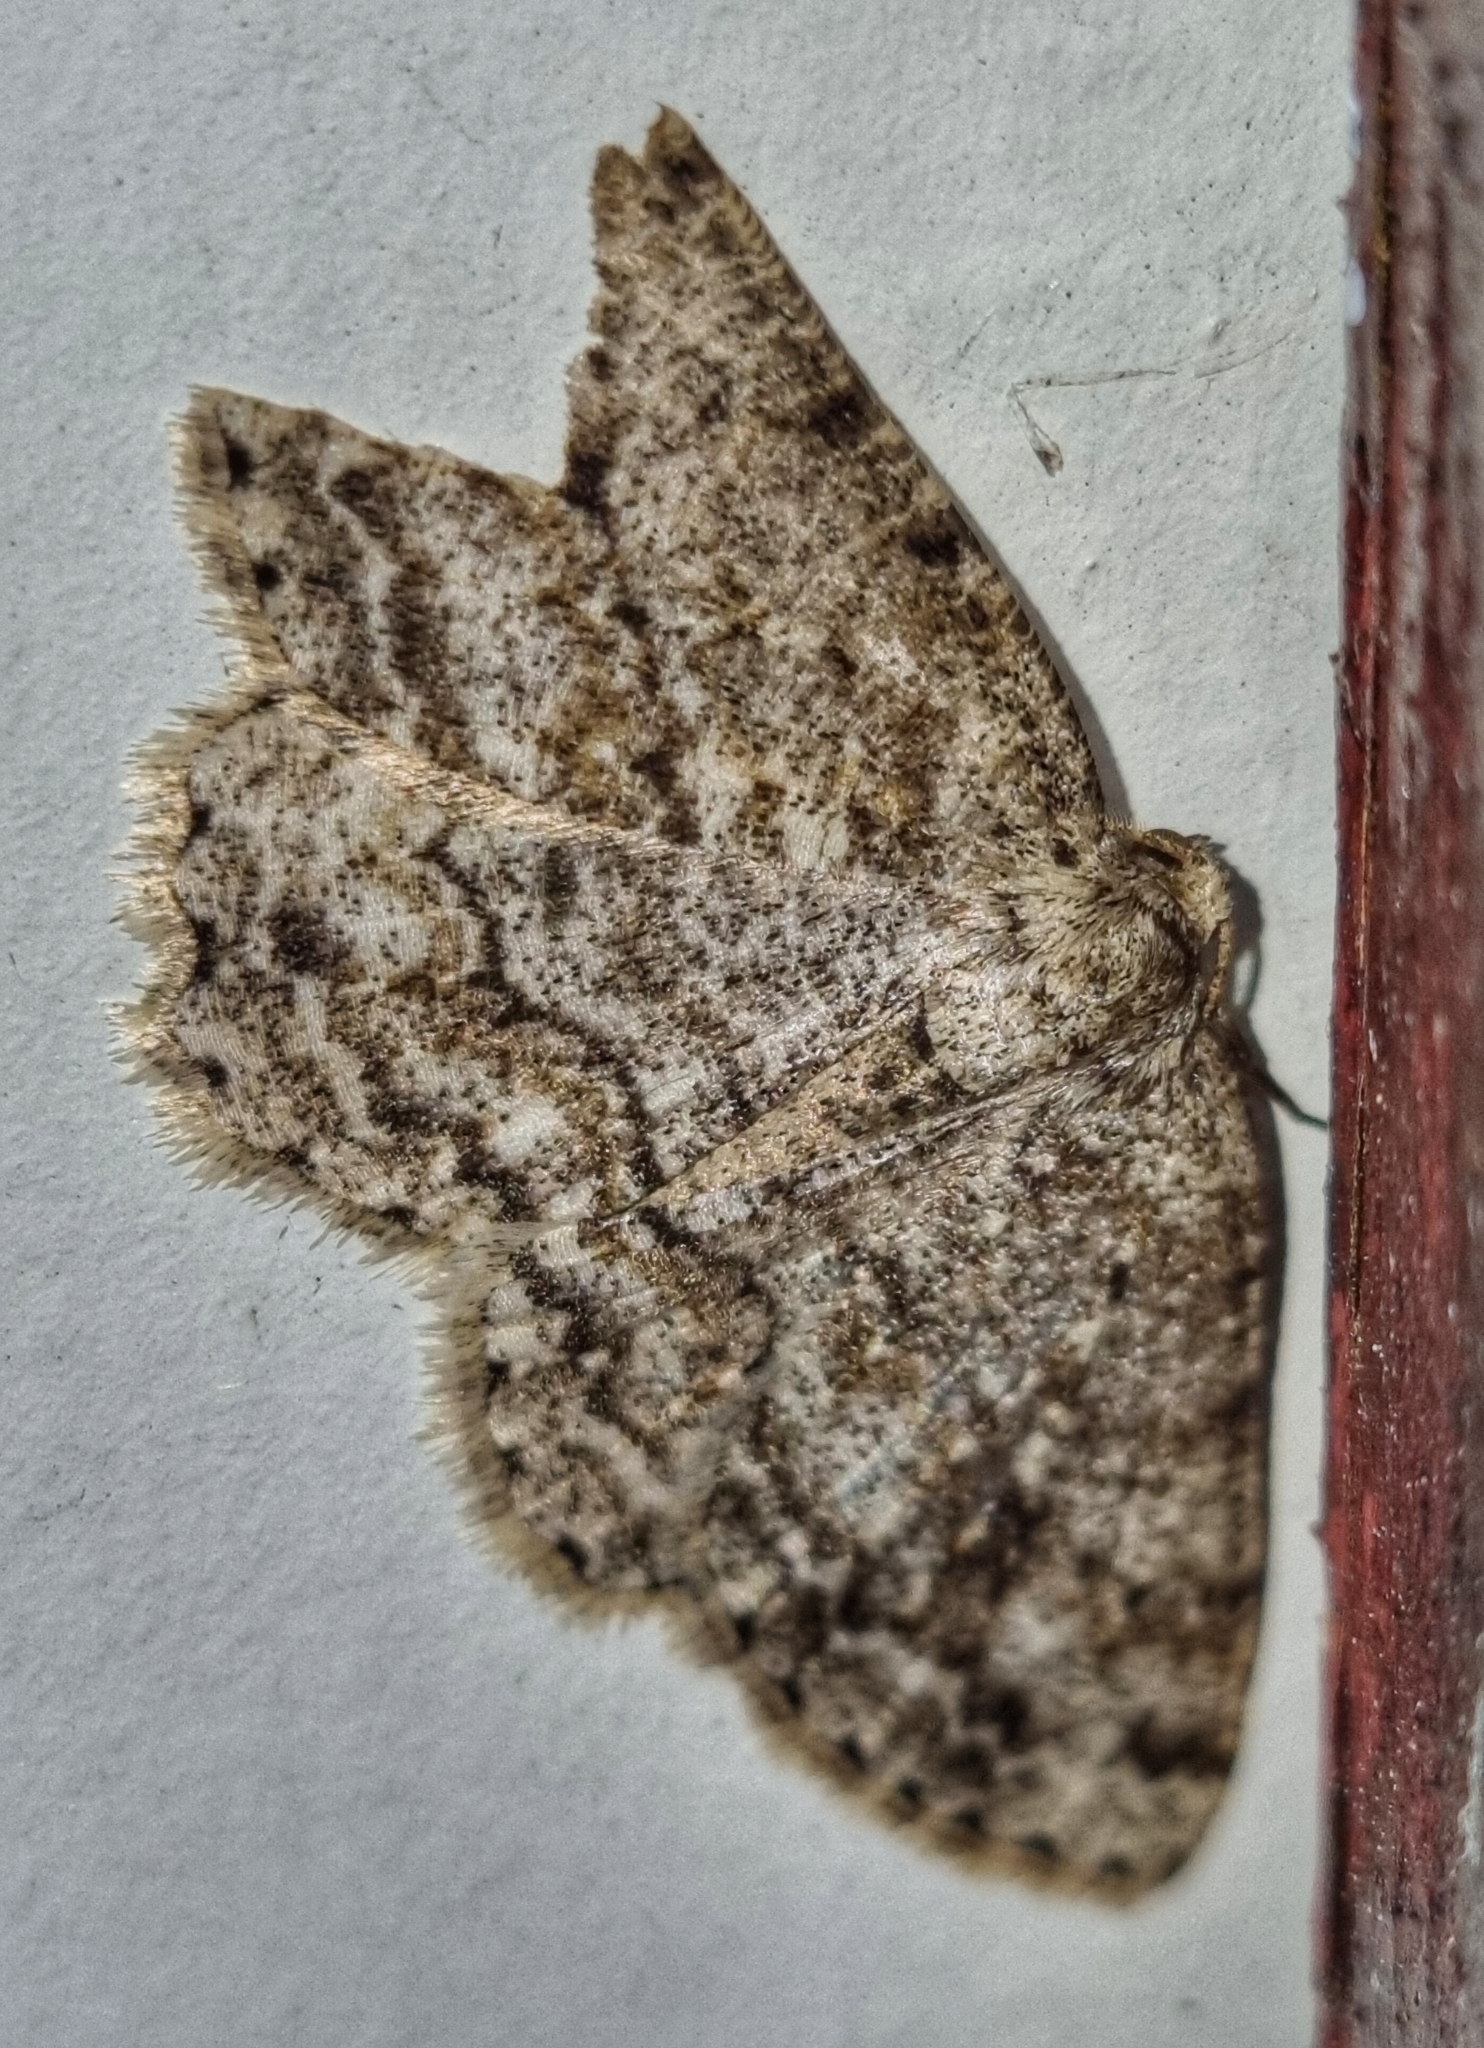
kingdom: Animalia
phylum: Arthropoda
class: Insecta
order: Lepidoptera
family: Geometridae
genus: Ectropis
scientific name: Ectropis crepuscularia
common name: Engrailed
